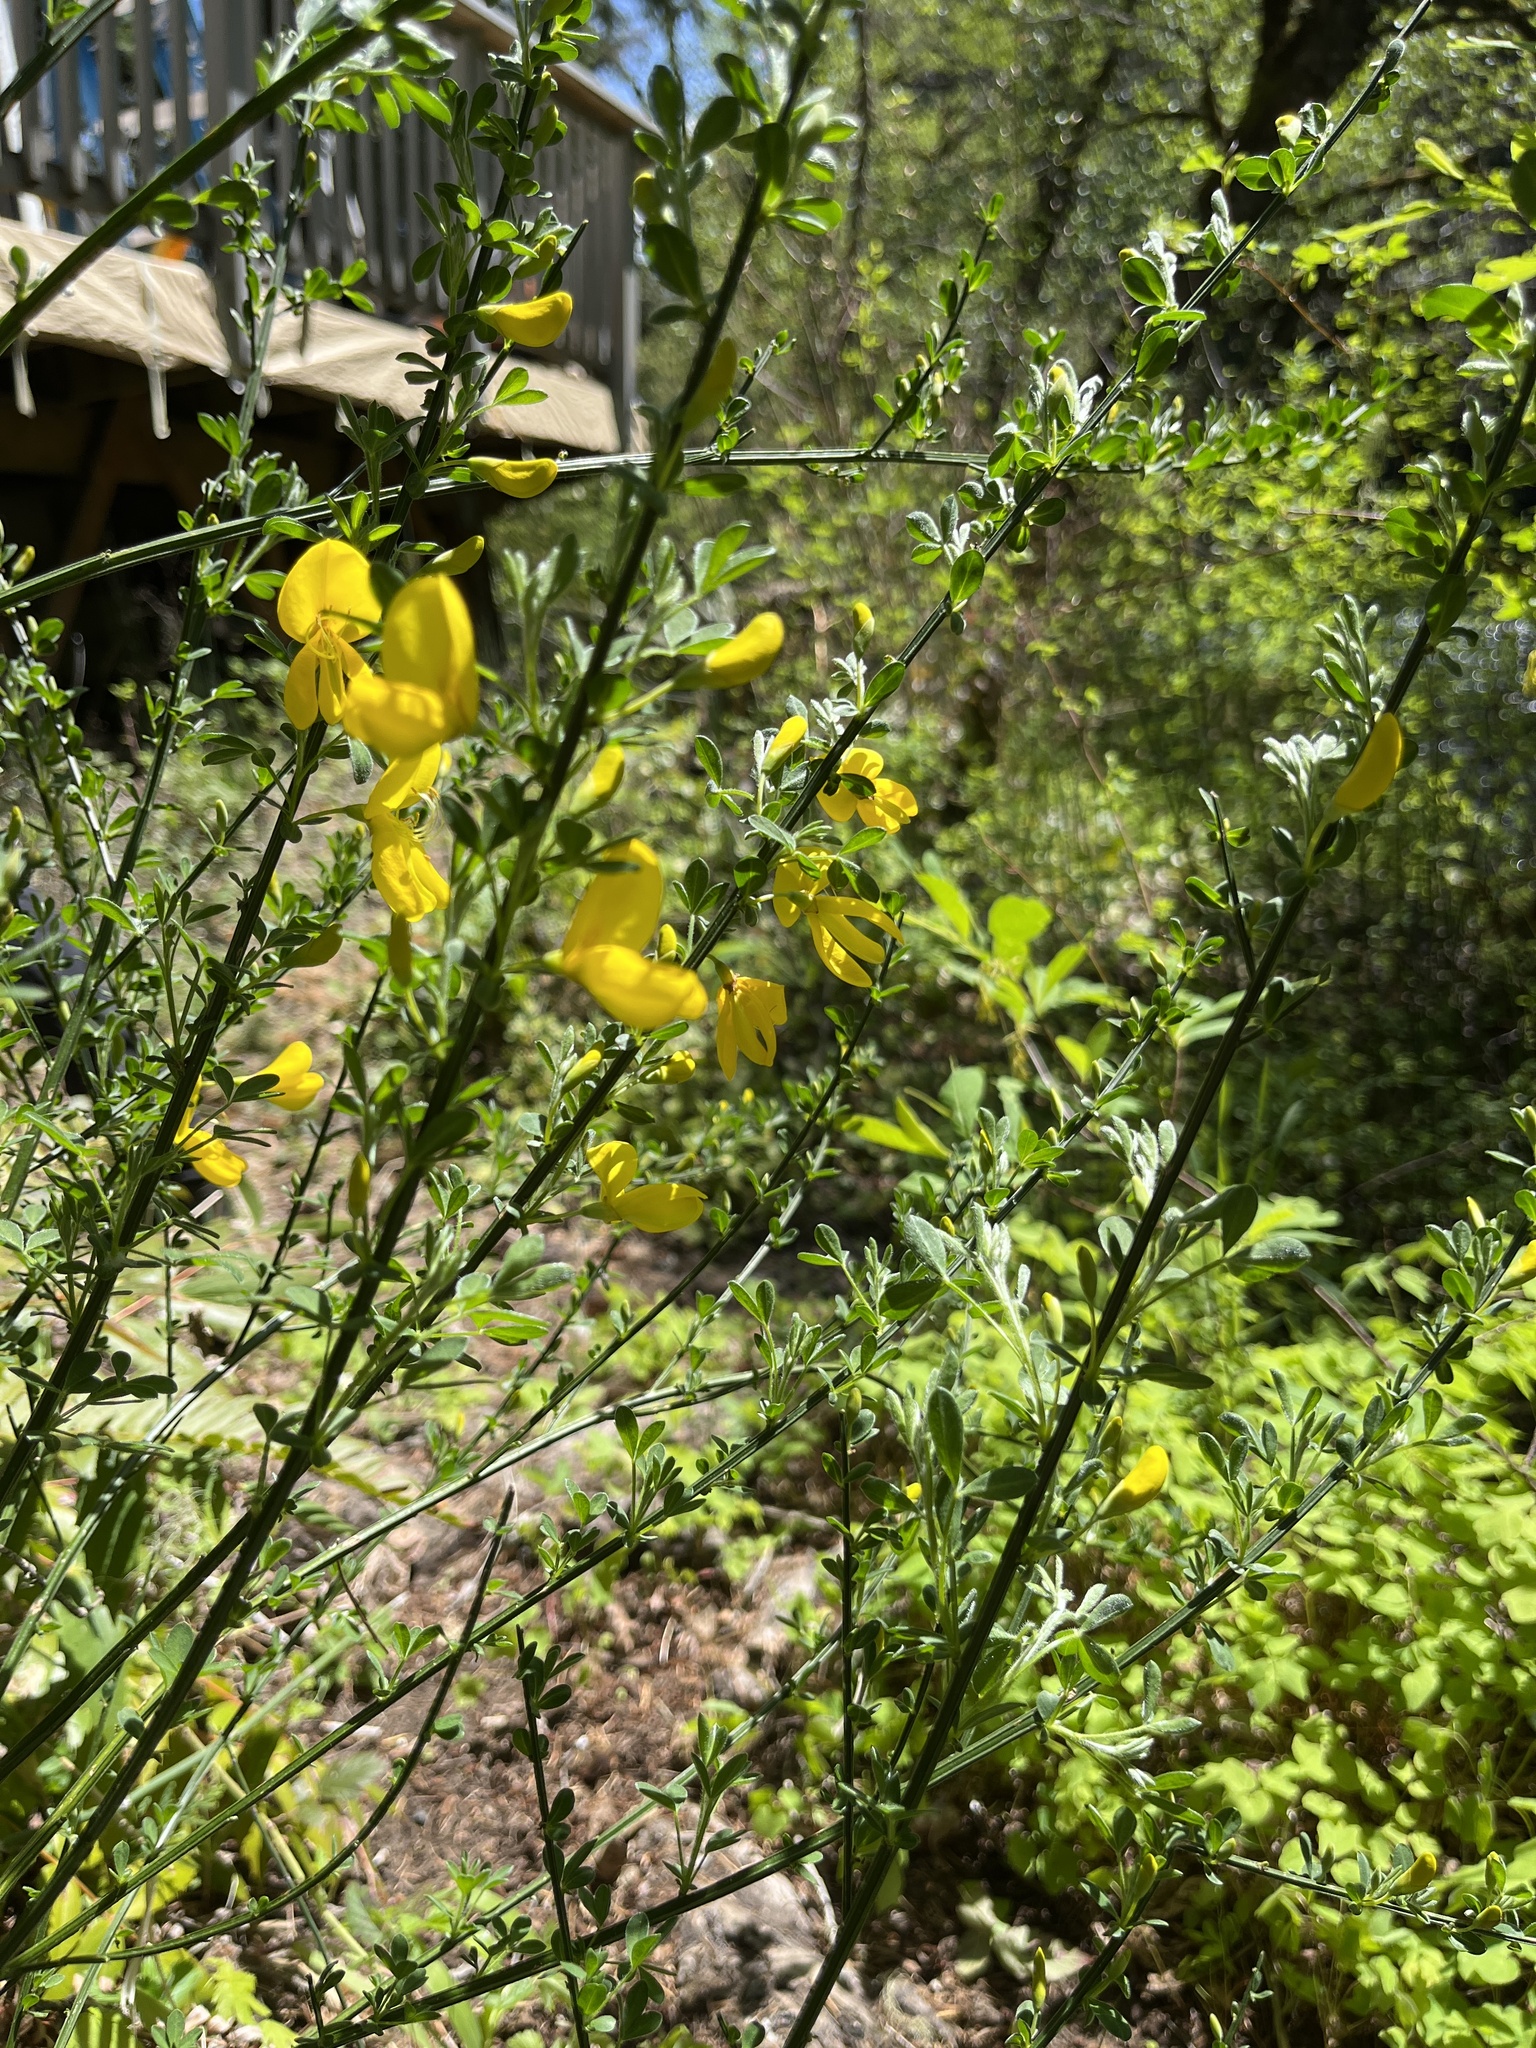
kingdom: Plantae
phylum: Tracheophyta
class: Magnoliopsida
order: Fabales
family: Fabaceae
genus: Cytisus
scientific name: Cytisus scoparius
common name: Scotch broom
